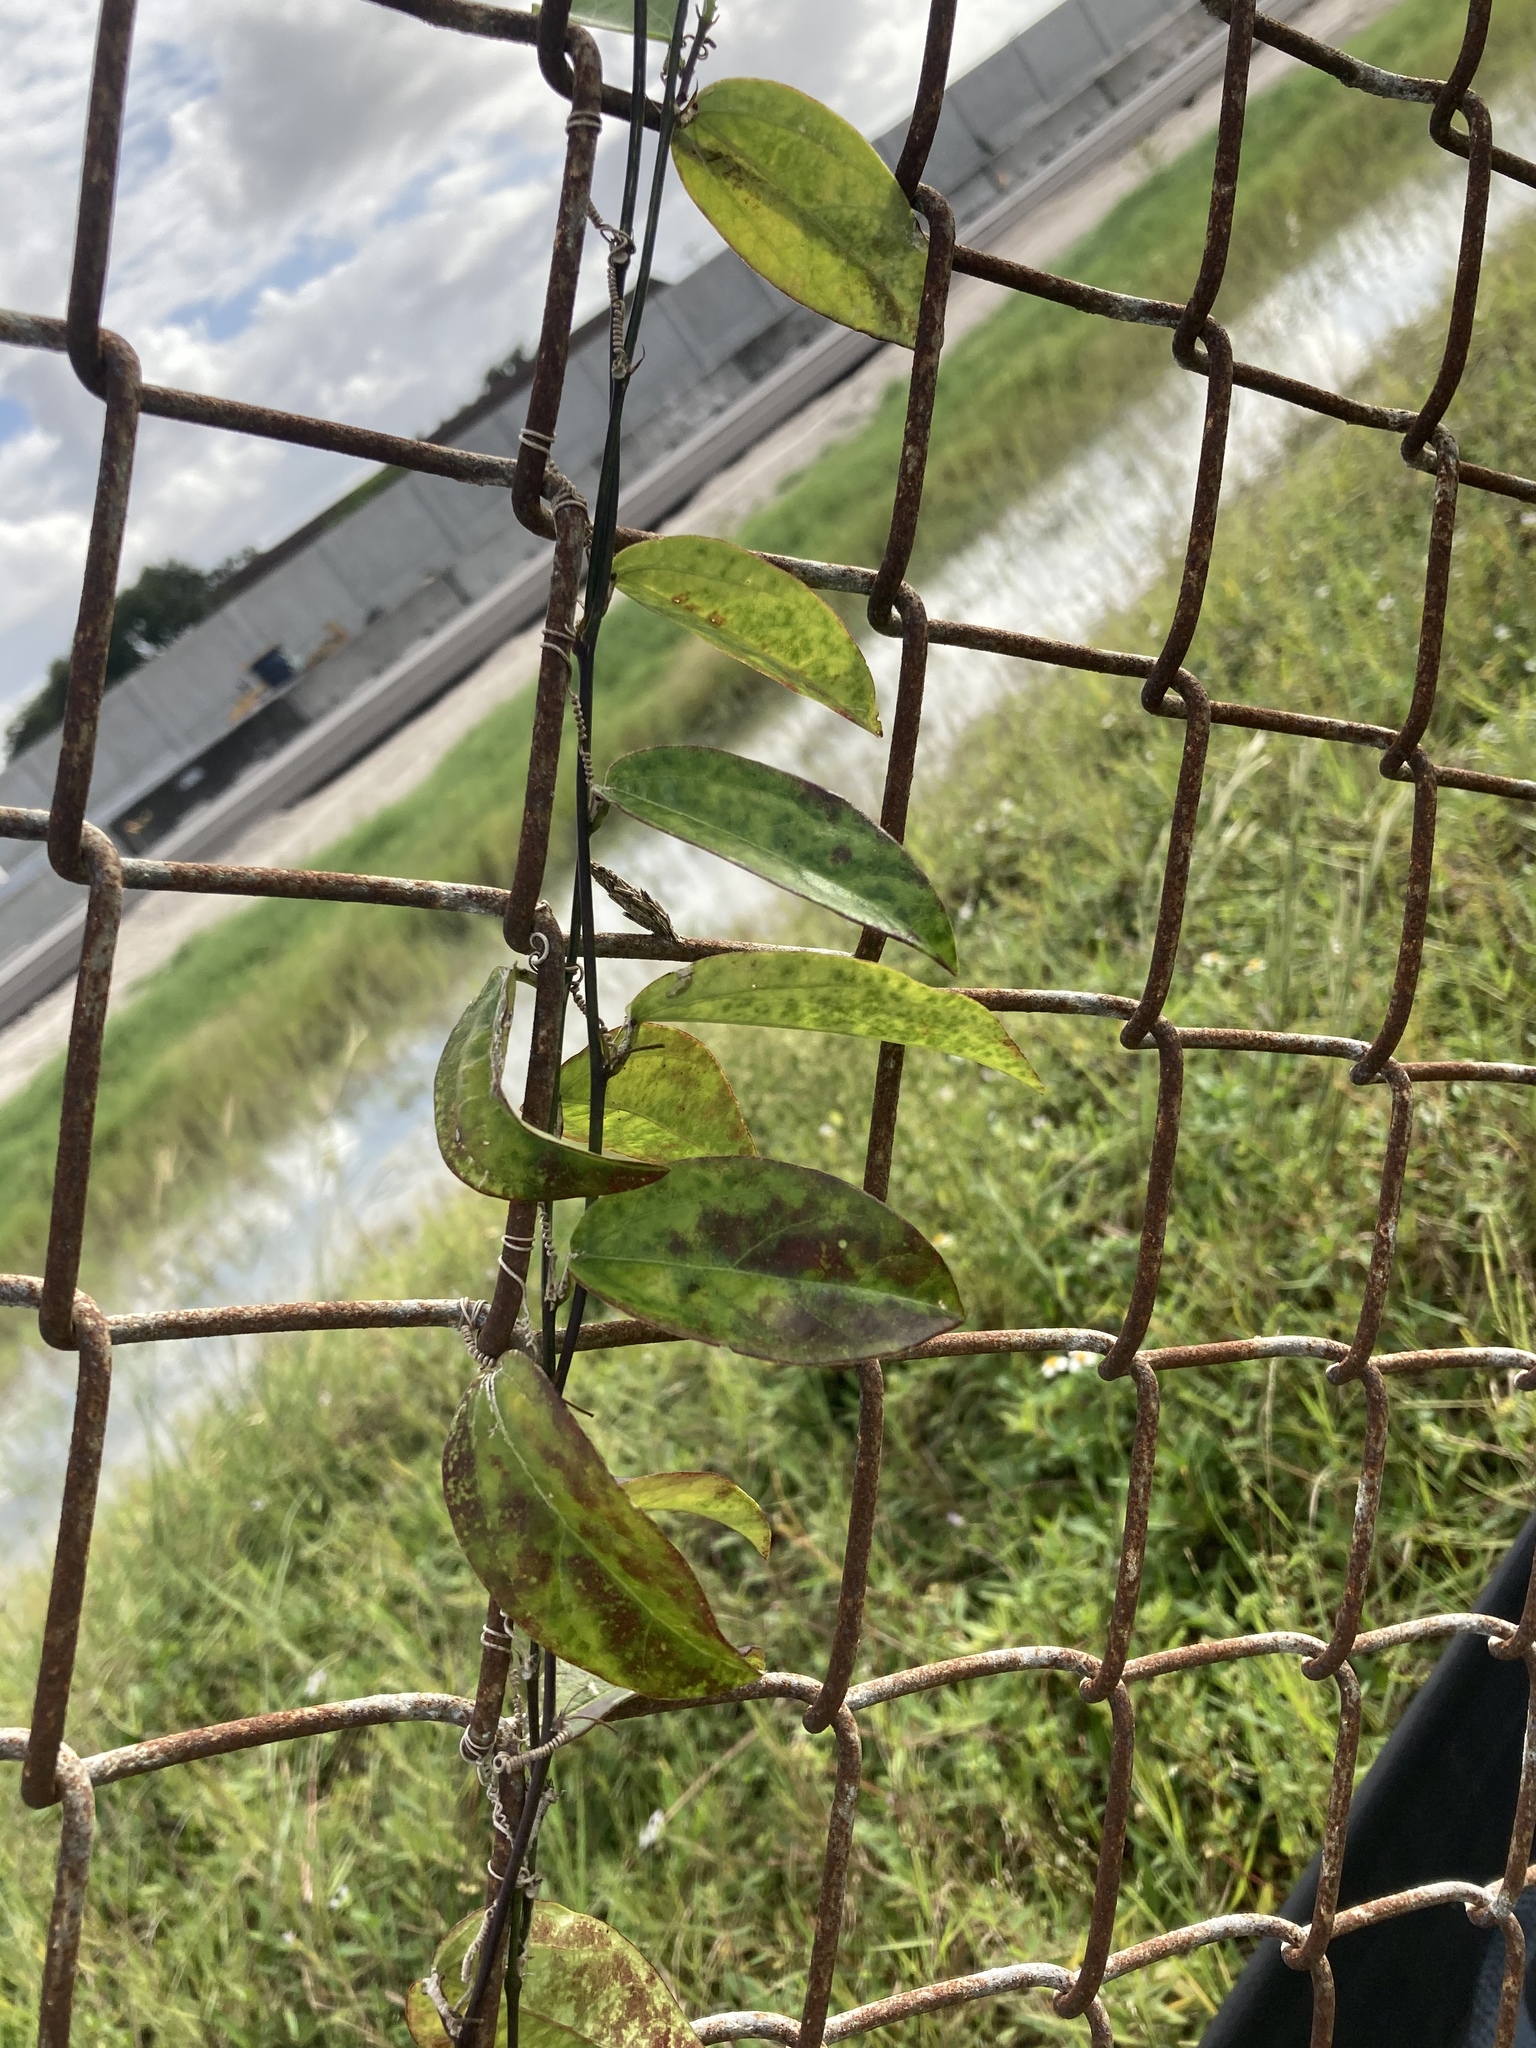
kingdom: Plantae
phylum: Tracheophyta
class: Magnoliopsida
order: Malpighiales
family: Passifloraceae
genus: Passiflora
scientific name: Passiflora pallida
